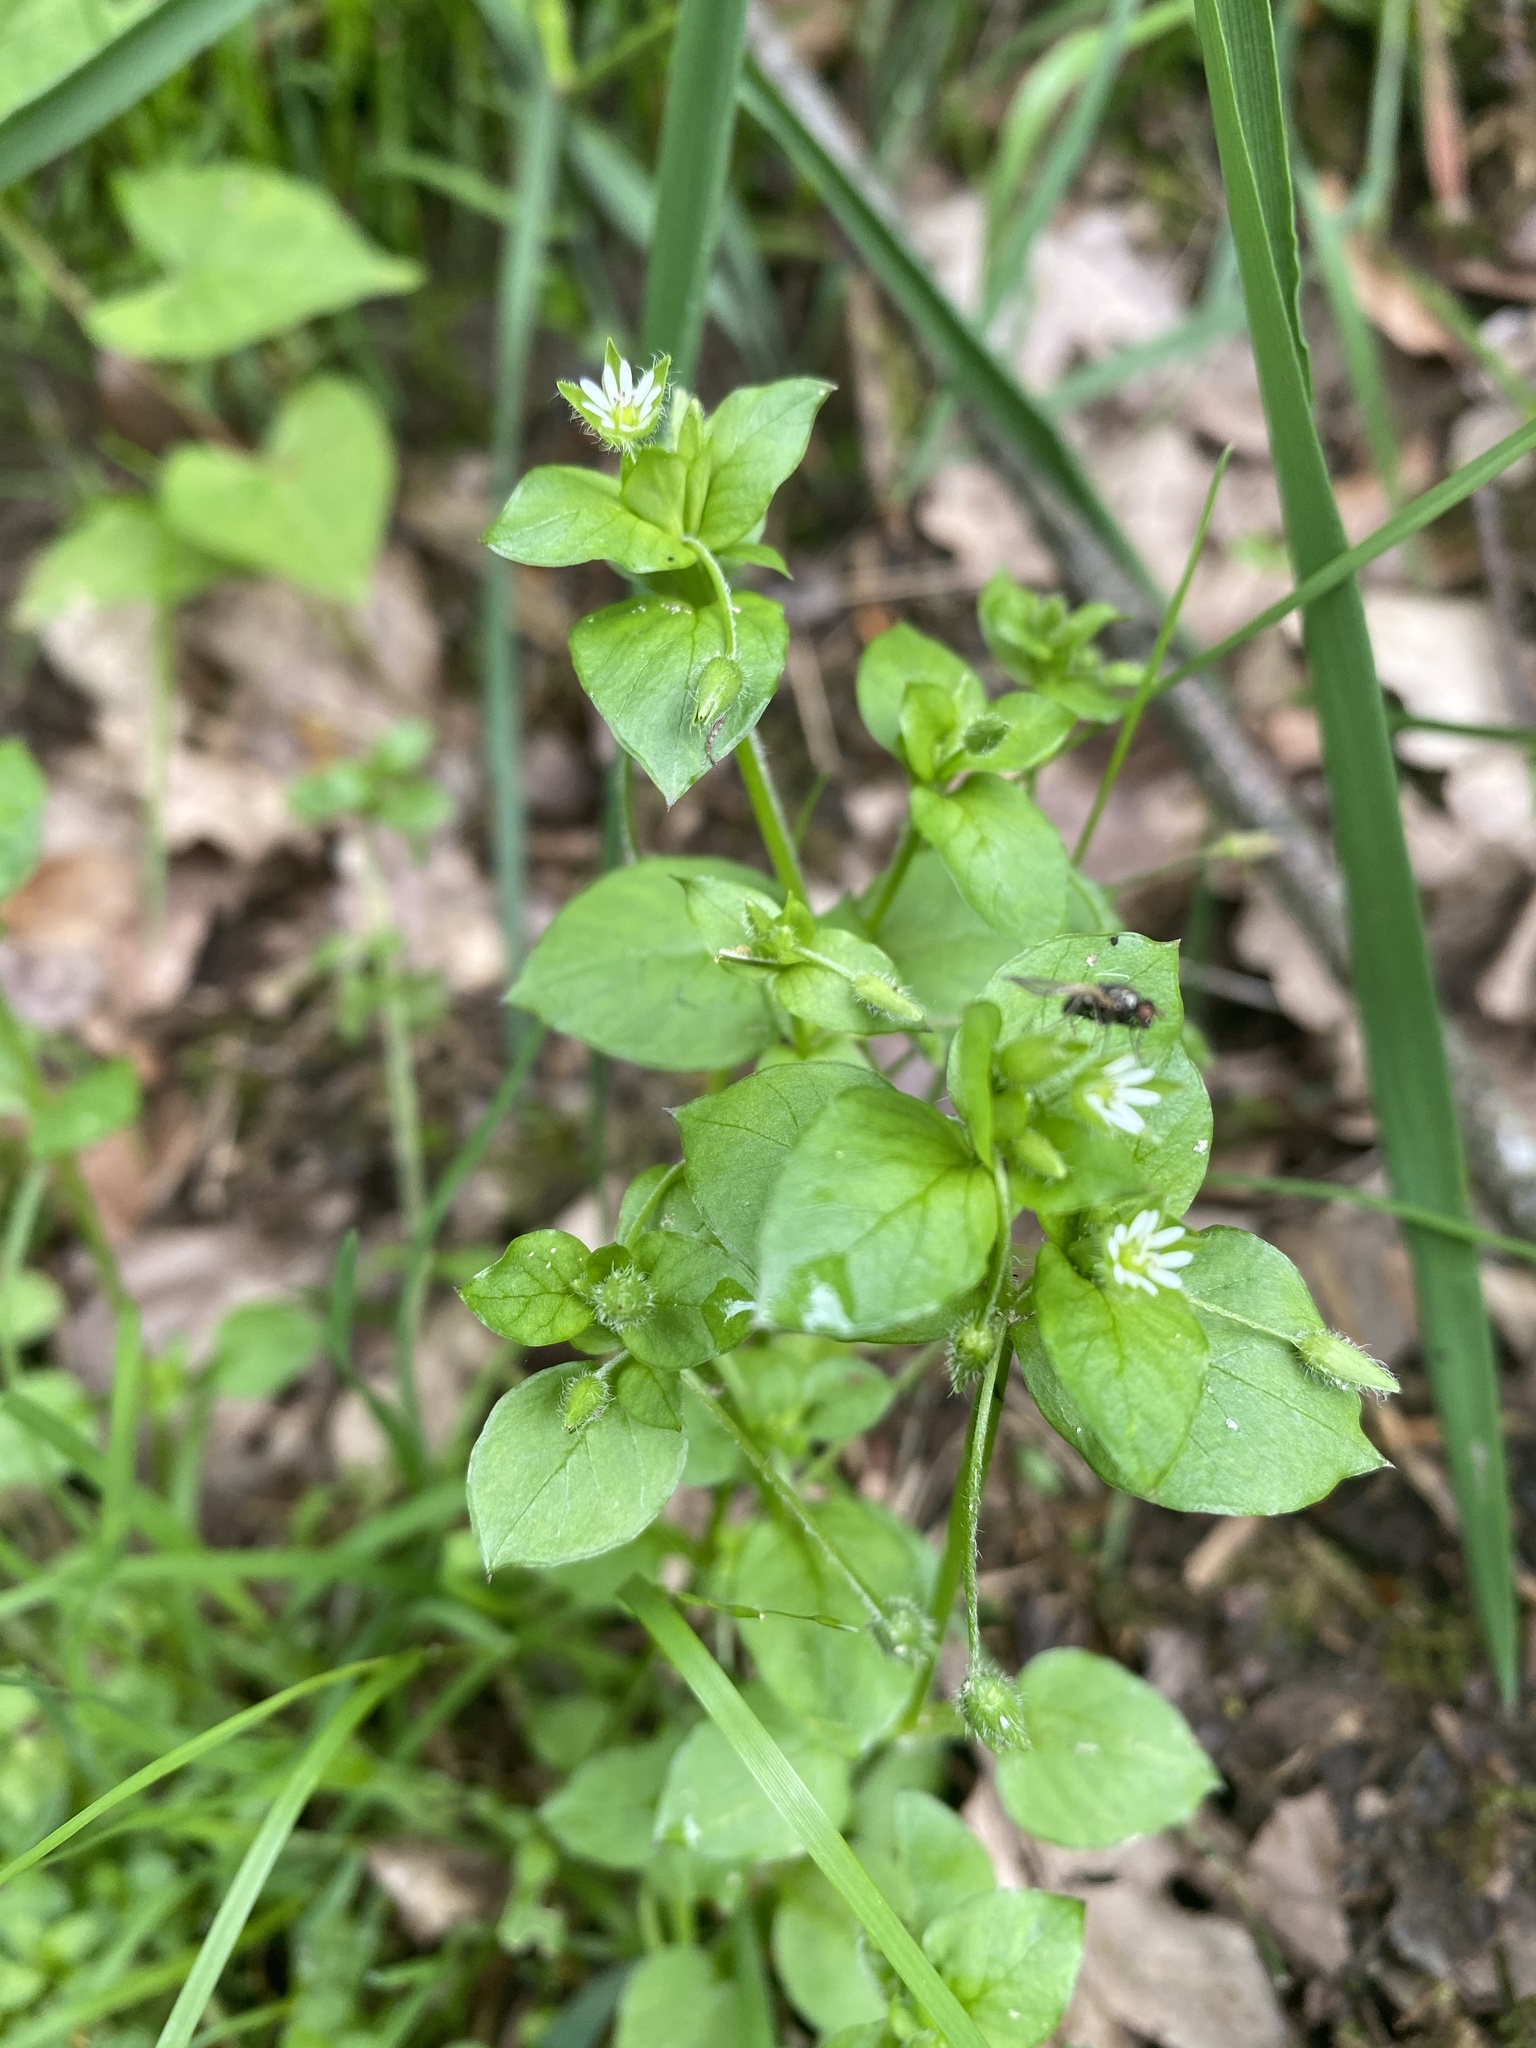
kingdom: Plantae
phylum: Tracheophyta
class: Magnoliopsida
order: Caryophyllales
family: Caryophyllaceae
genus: Stellaria
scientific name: Stellaria media
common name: Common chickweed
